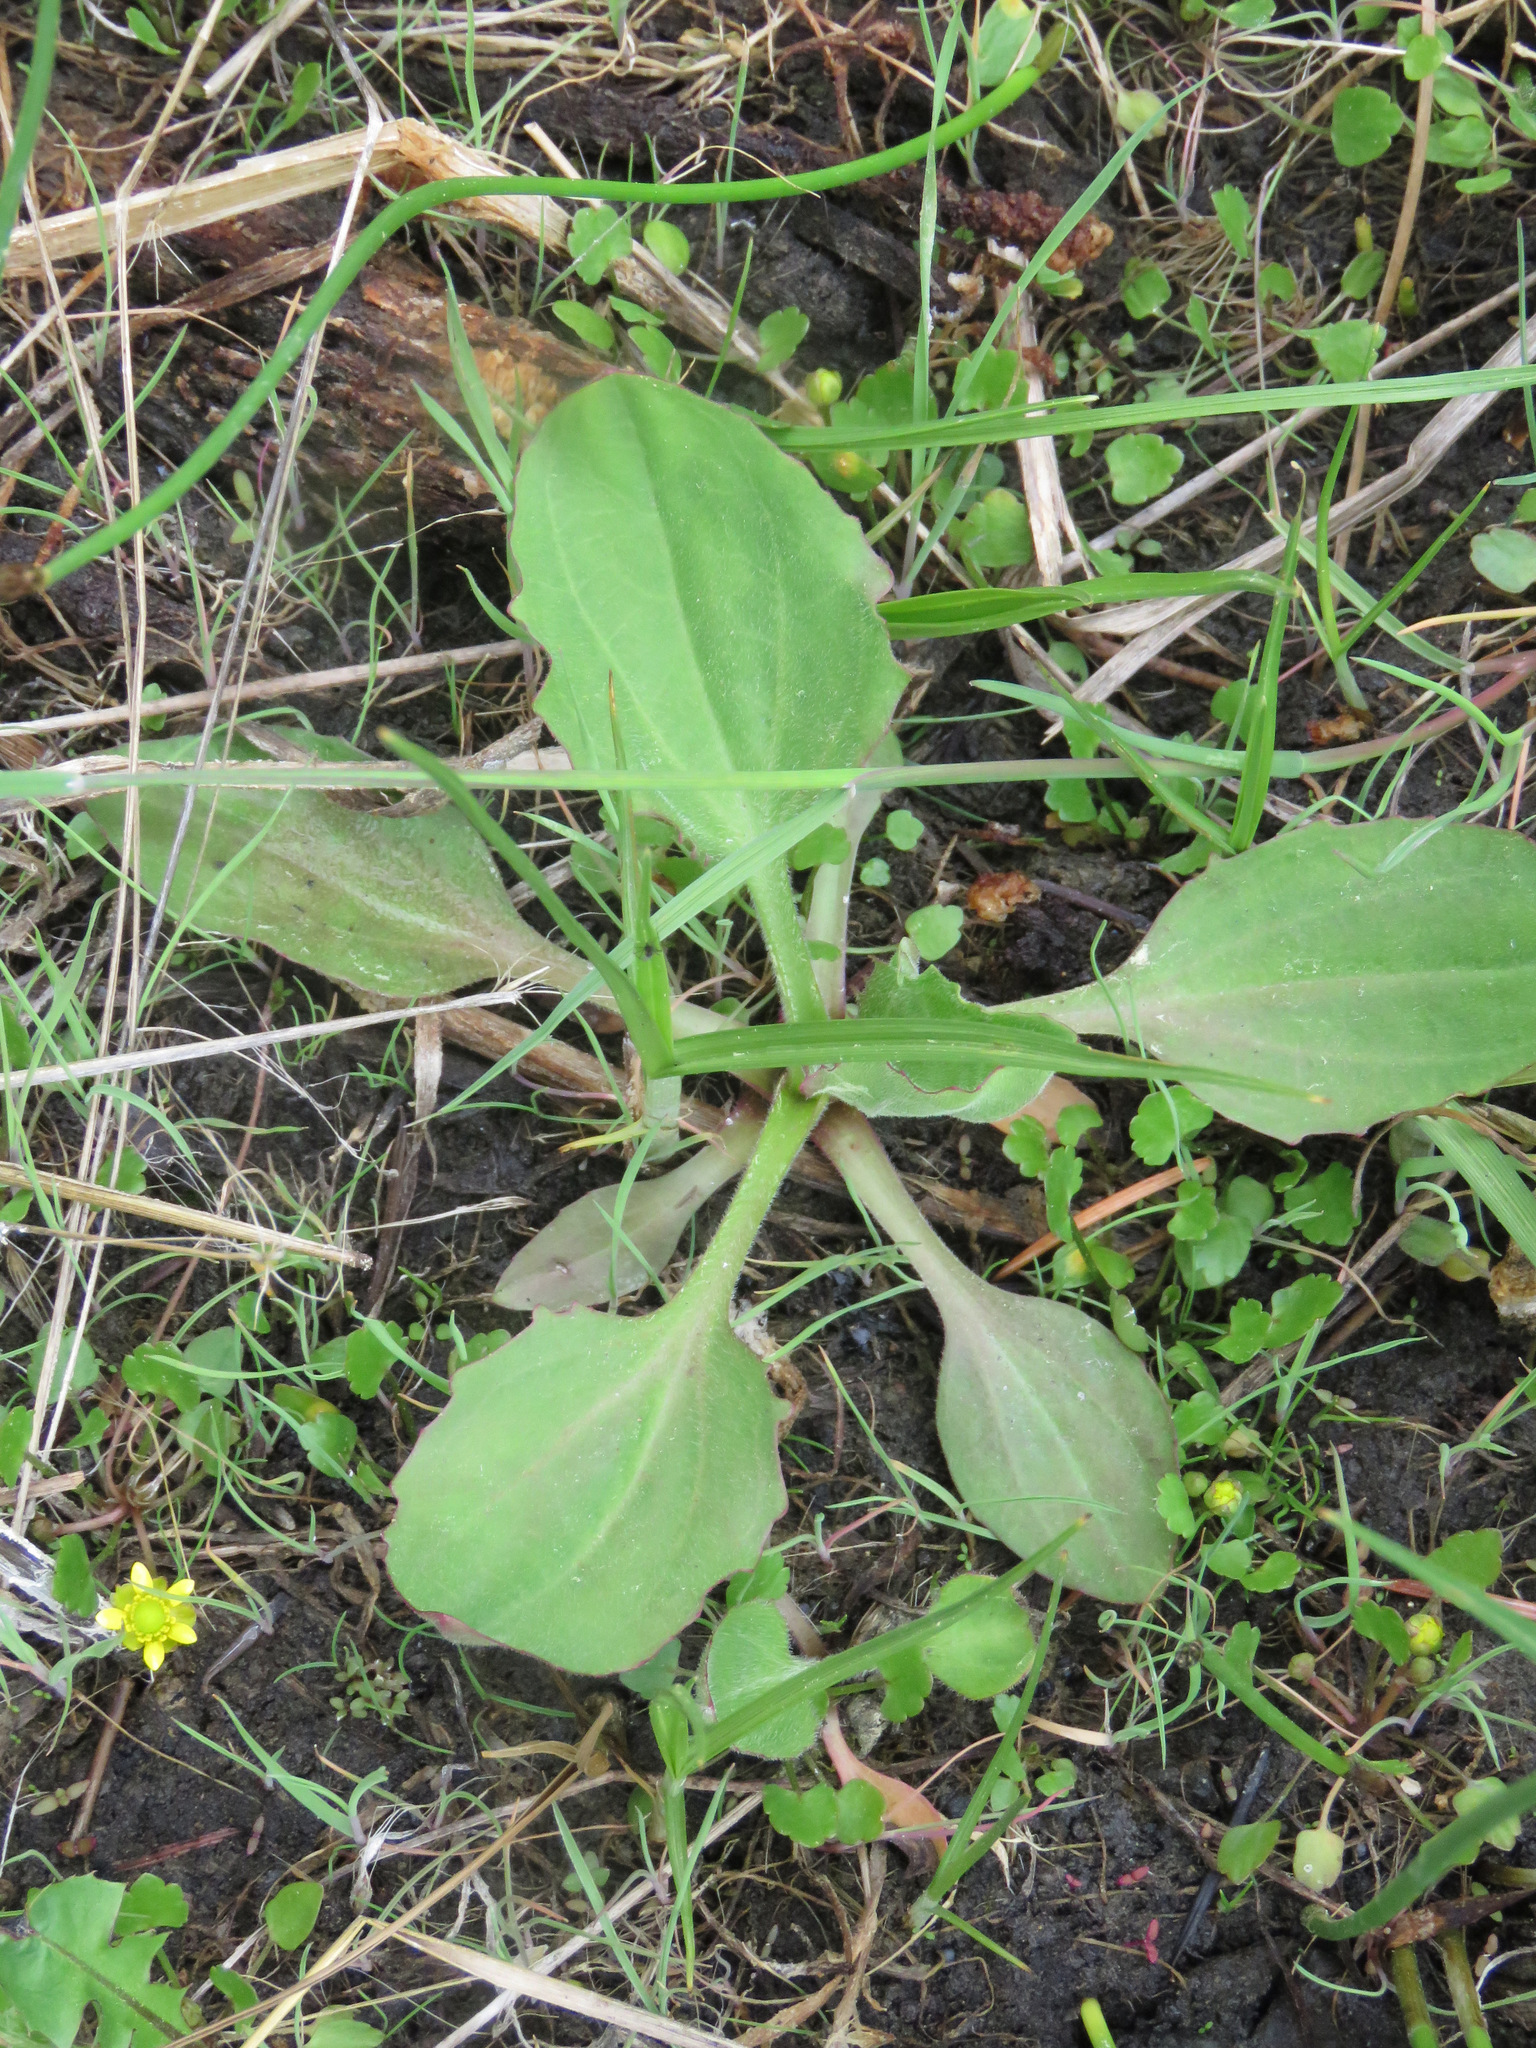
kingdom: Plantae
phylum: Tracheophyta
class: Magnoliopsida
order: Lamiales
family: Plantaginaceae
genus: Plantago
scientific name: Plantago major
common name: Common plantain
